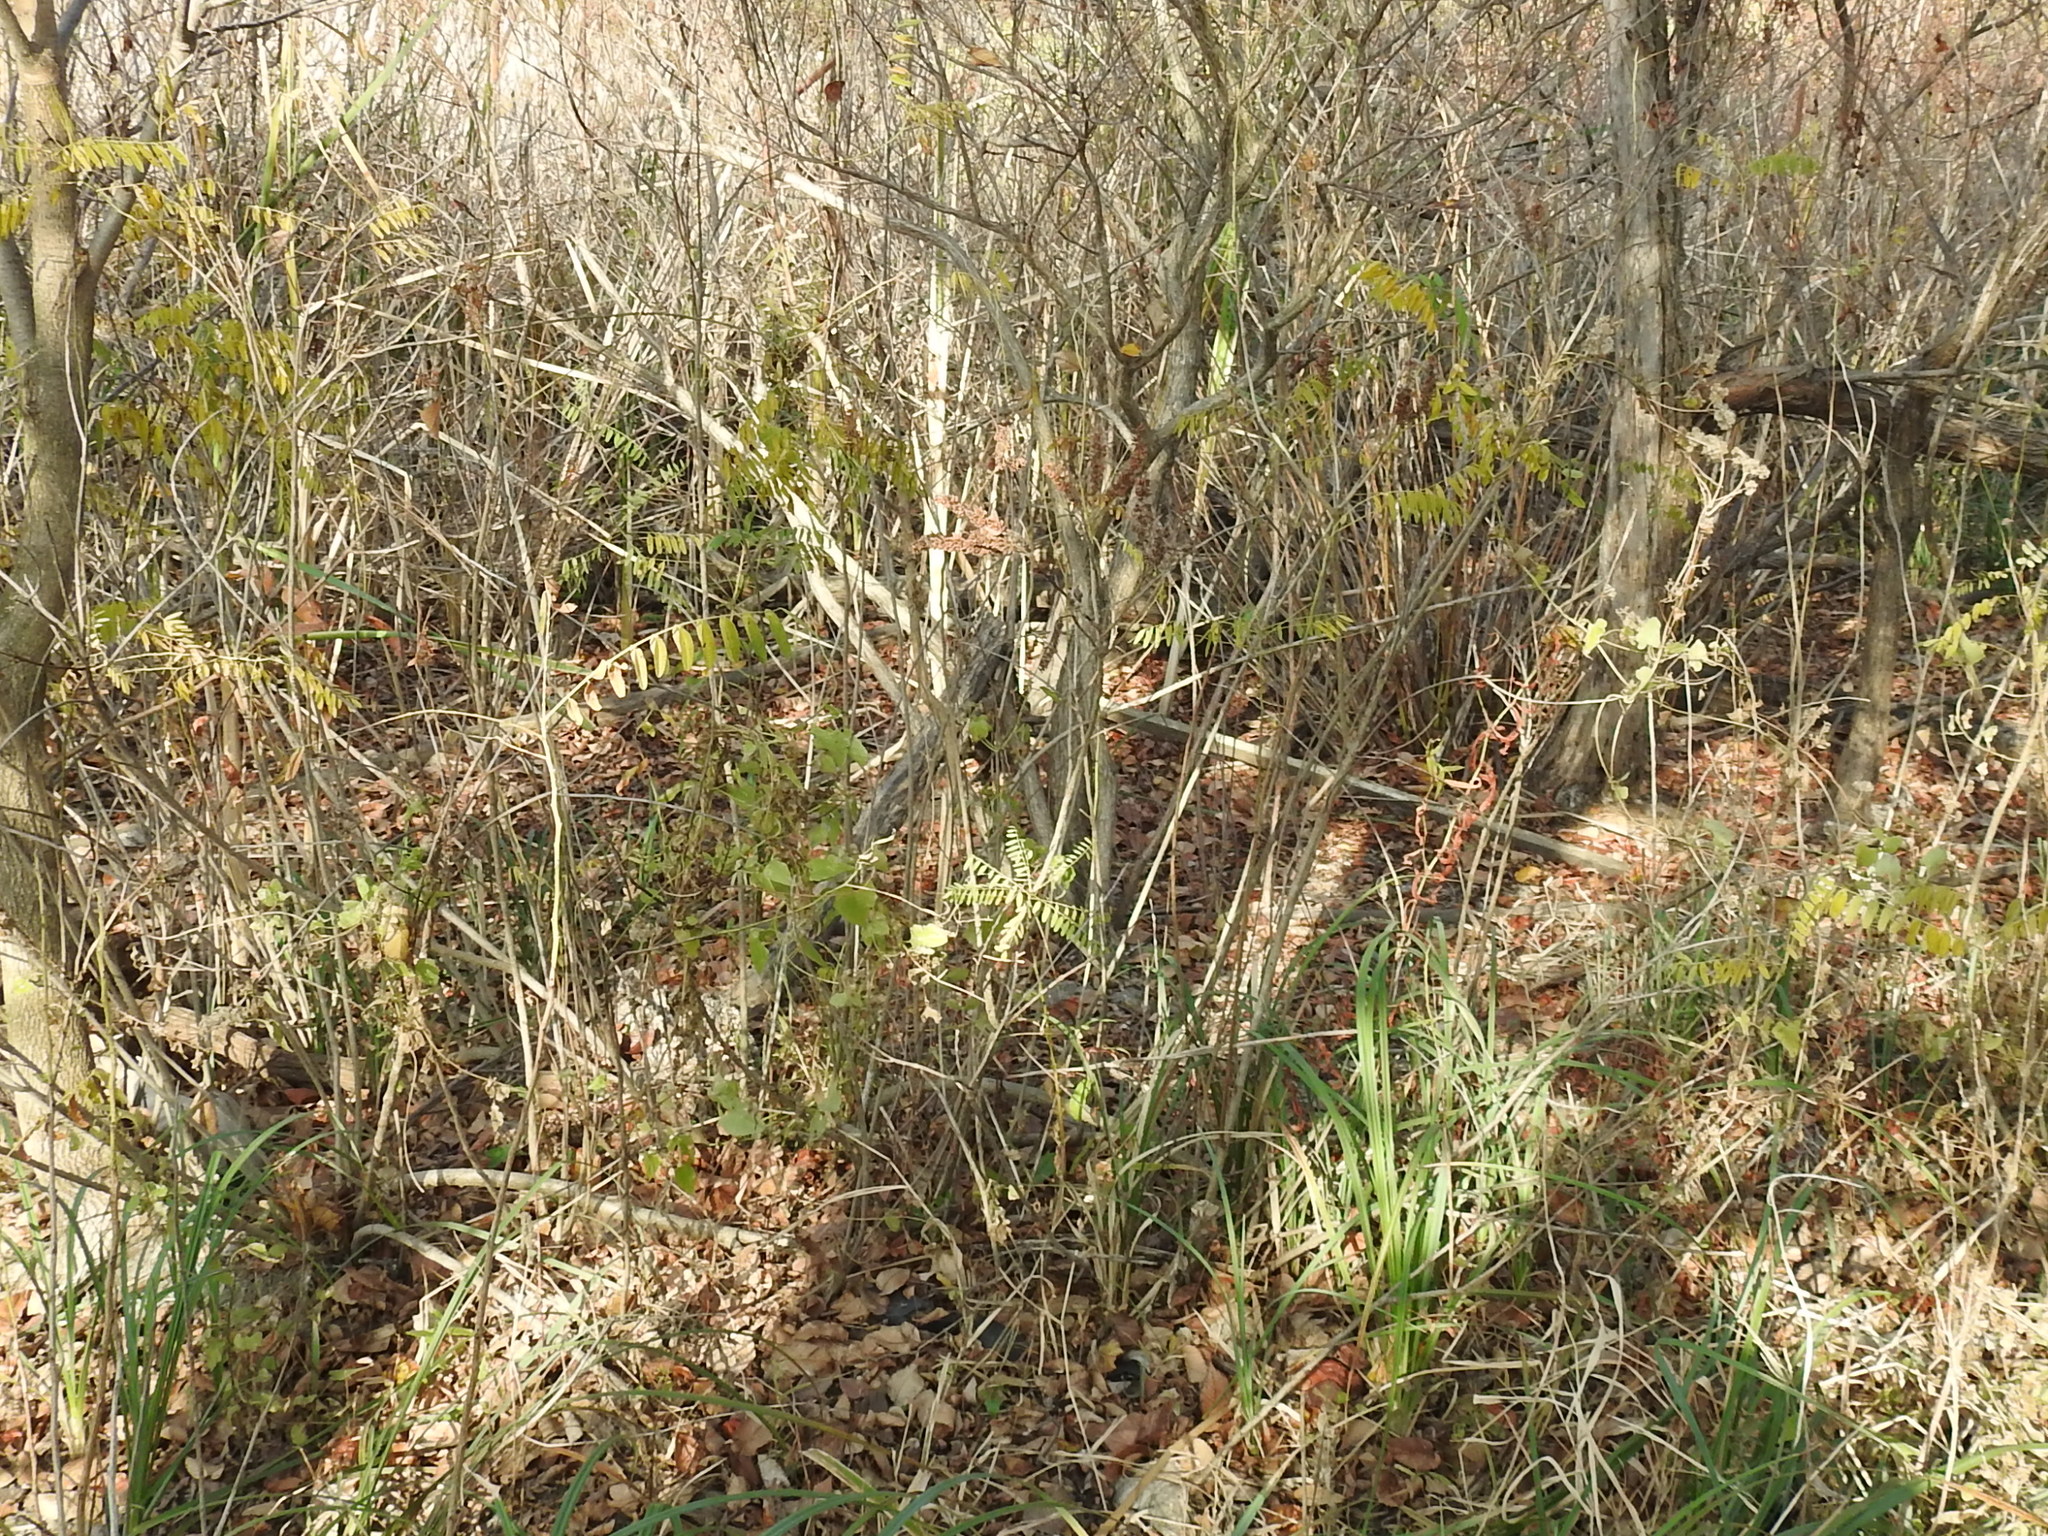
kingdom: Plantae
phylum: Tracheophyta
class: Magnoliopsida
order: Fabales
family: Fabaceae
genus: Amorpha
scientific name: Amorpha fruticosa
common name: False indigo
